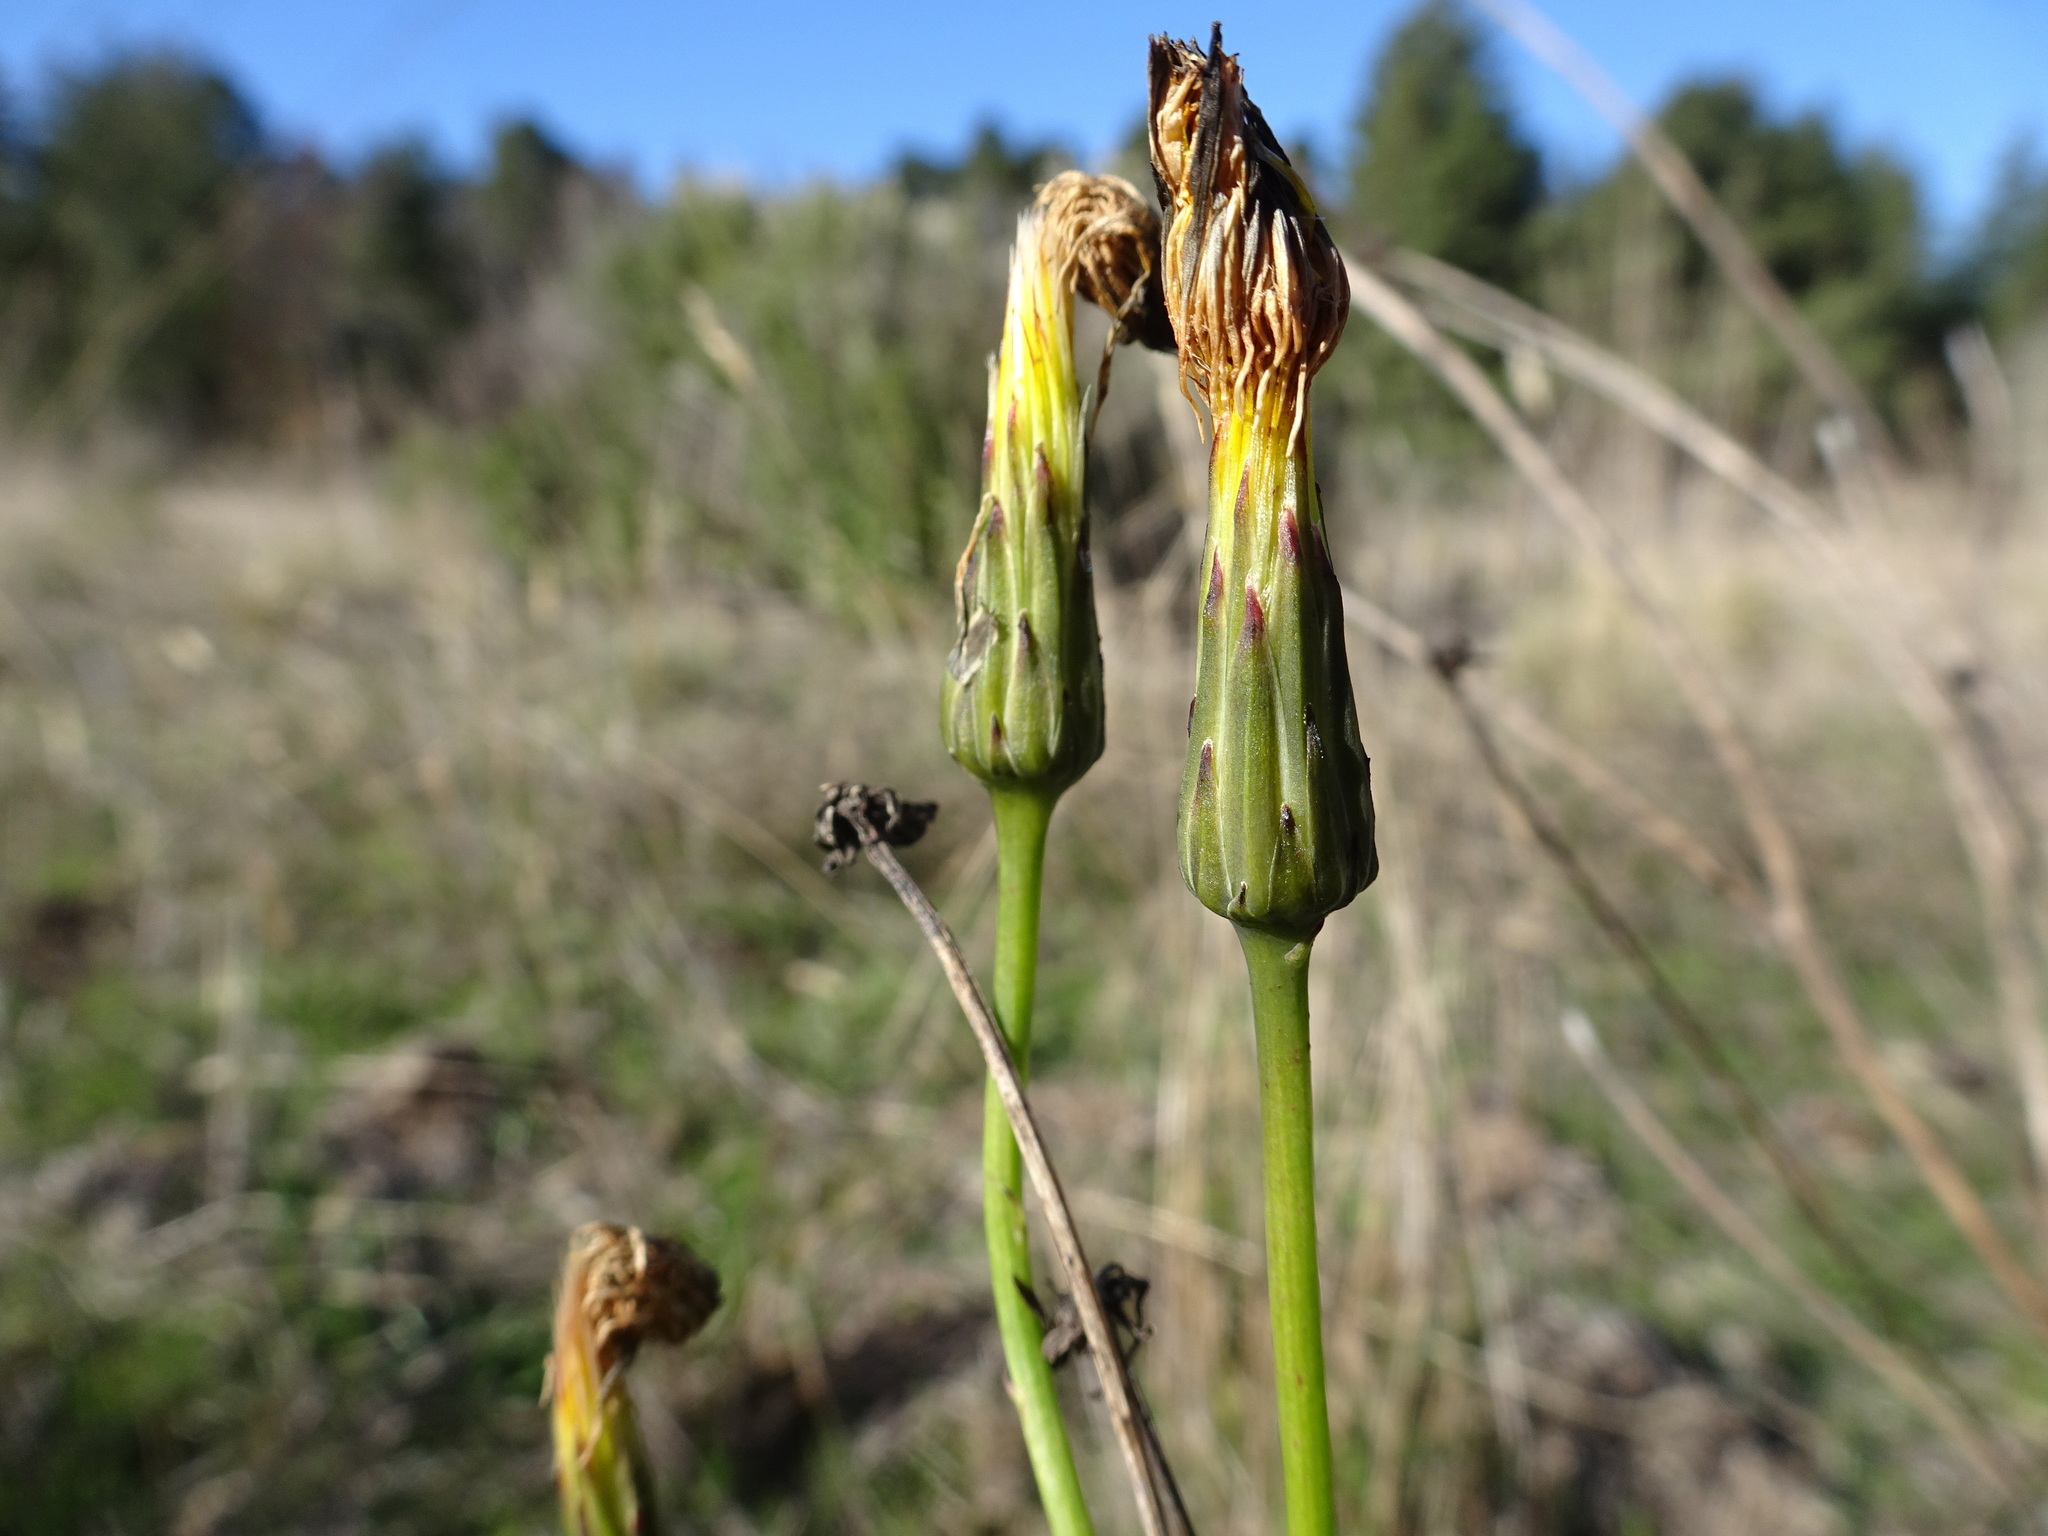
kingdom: Plantae
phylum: Tracheophyta
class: Magnoliopsida
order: Asterales
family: Asteraceae
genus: Hypochaeris
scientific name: Hypochaeris radicata
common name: Flatweed
